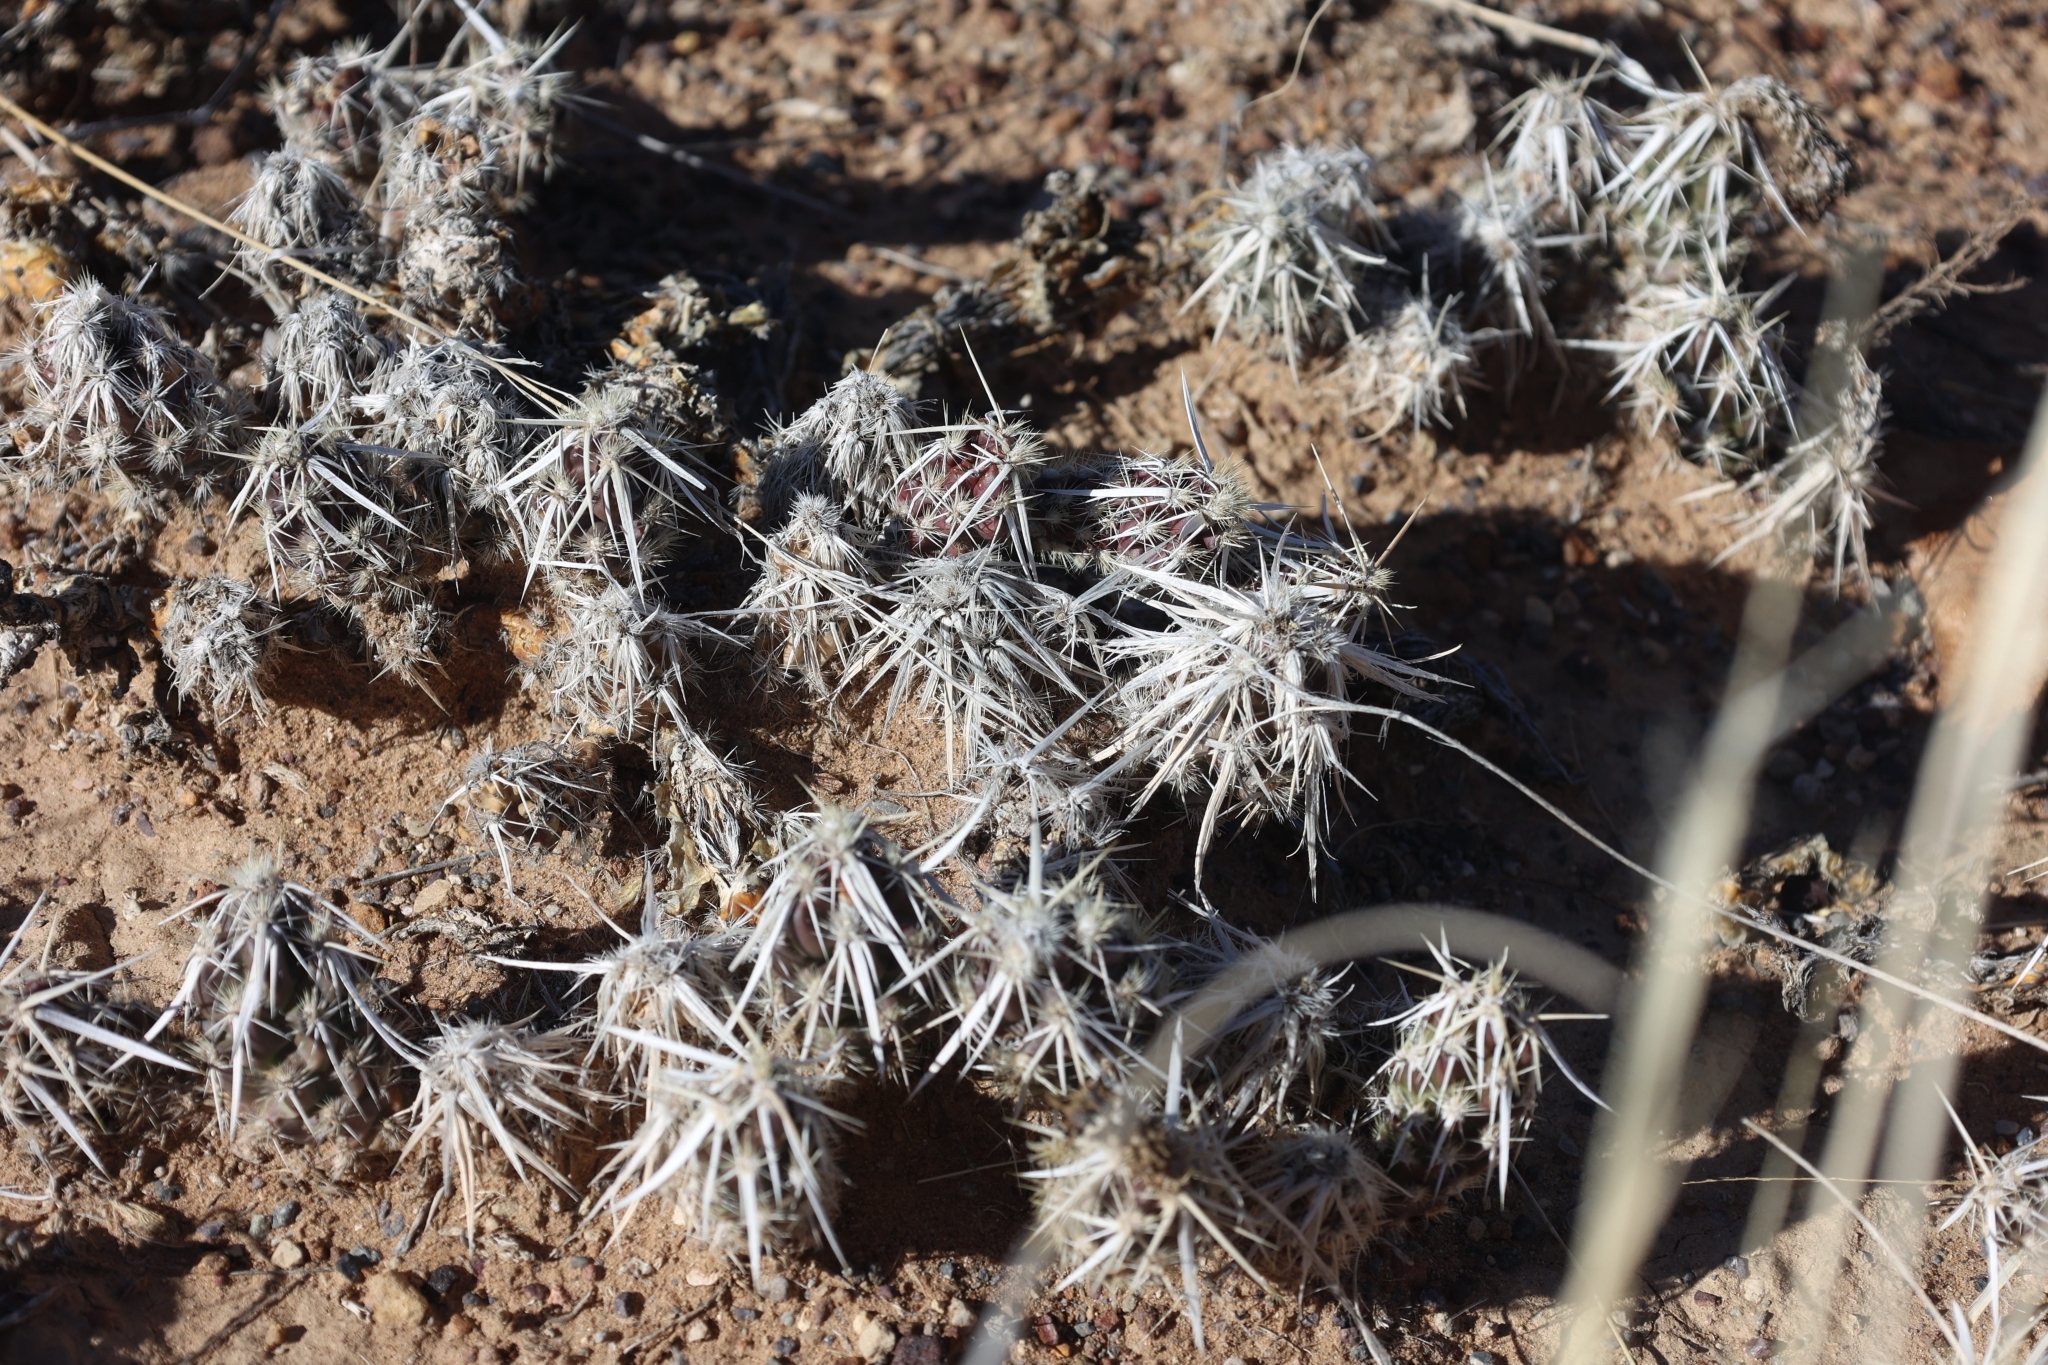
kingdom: Plantae
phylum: Tracheophyta
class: Magnoliopsida
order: Caryophyllales
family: Cactaceae
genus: Grusonia
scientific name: Grusonia clavata
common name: Club cholla
